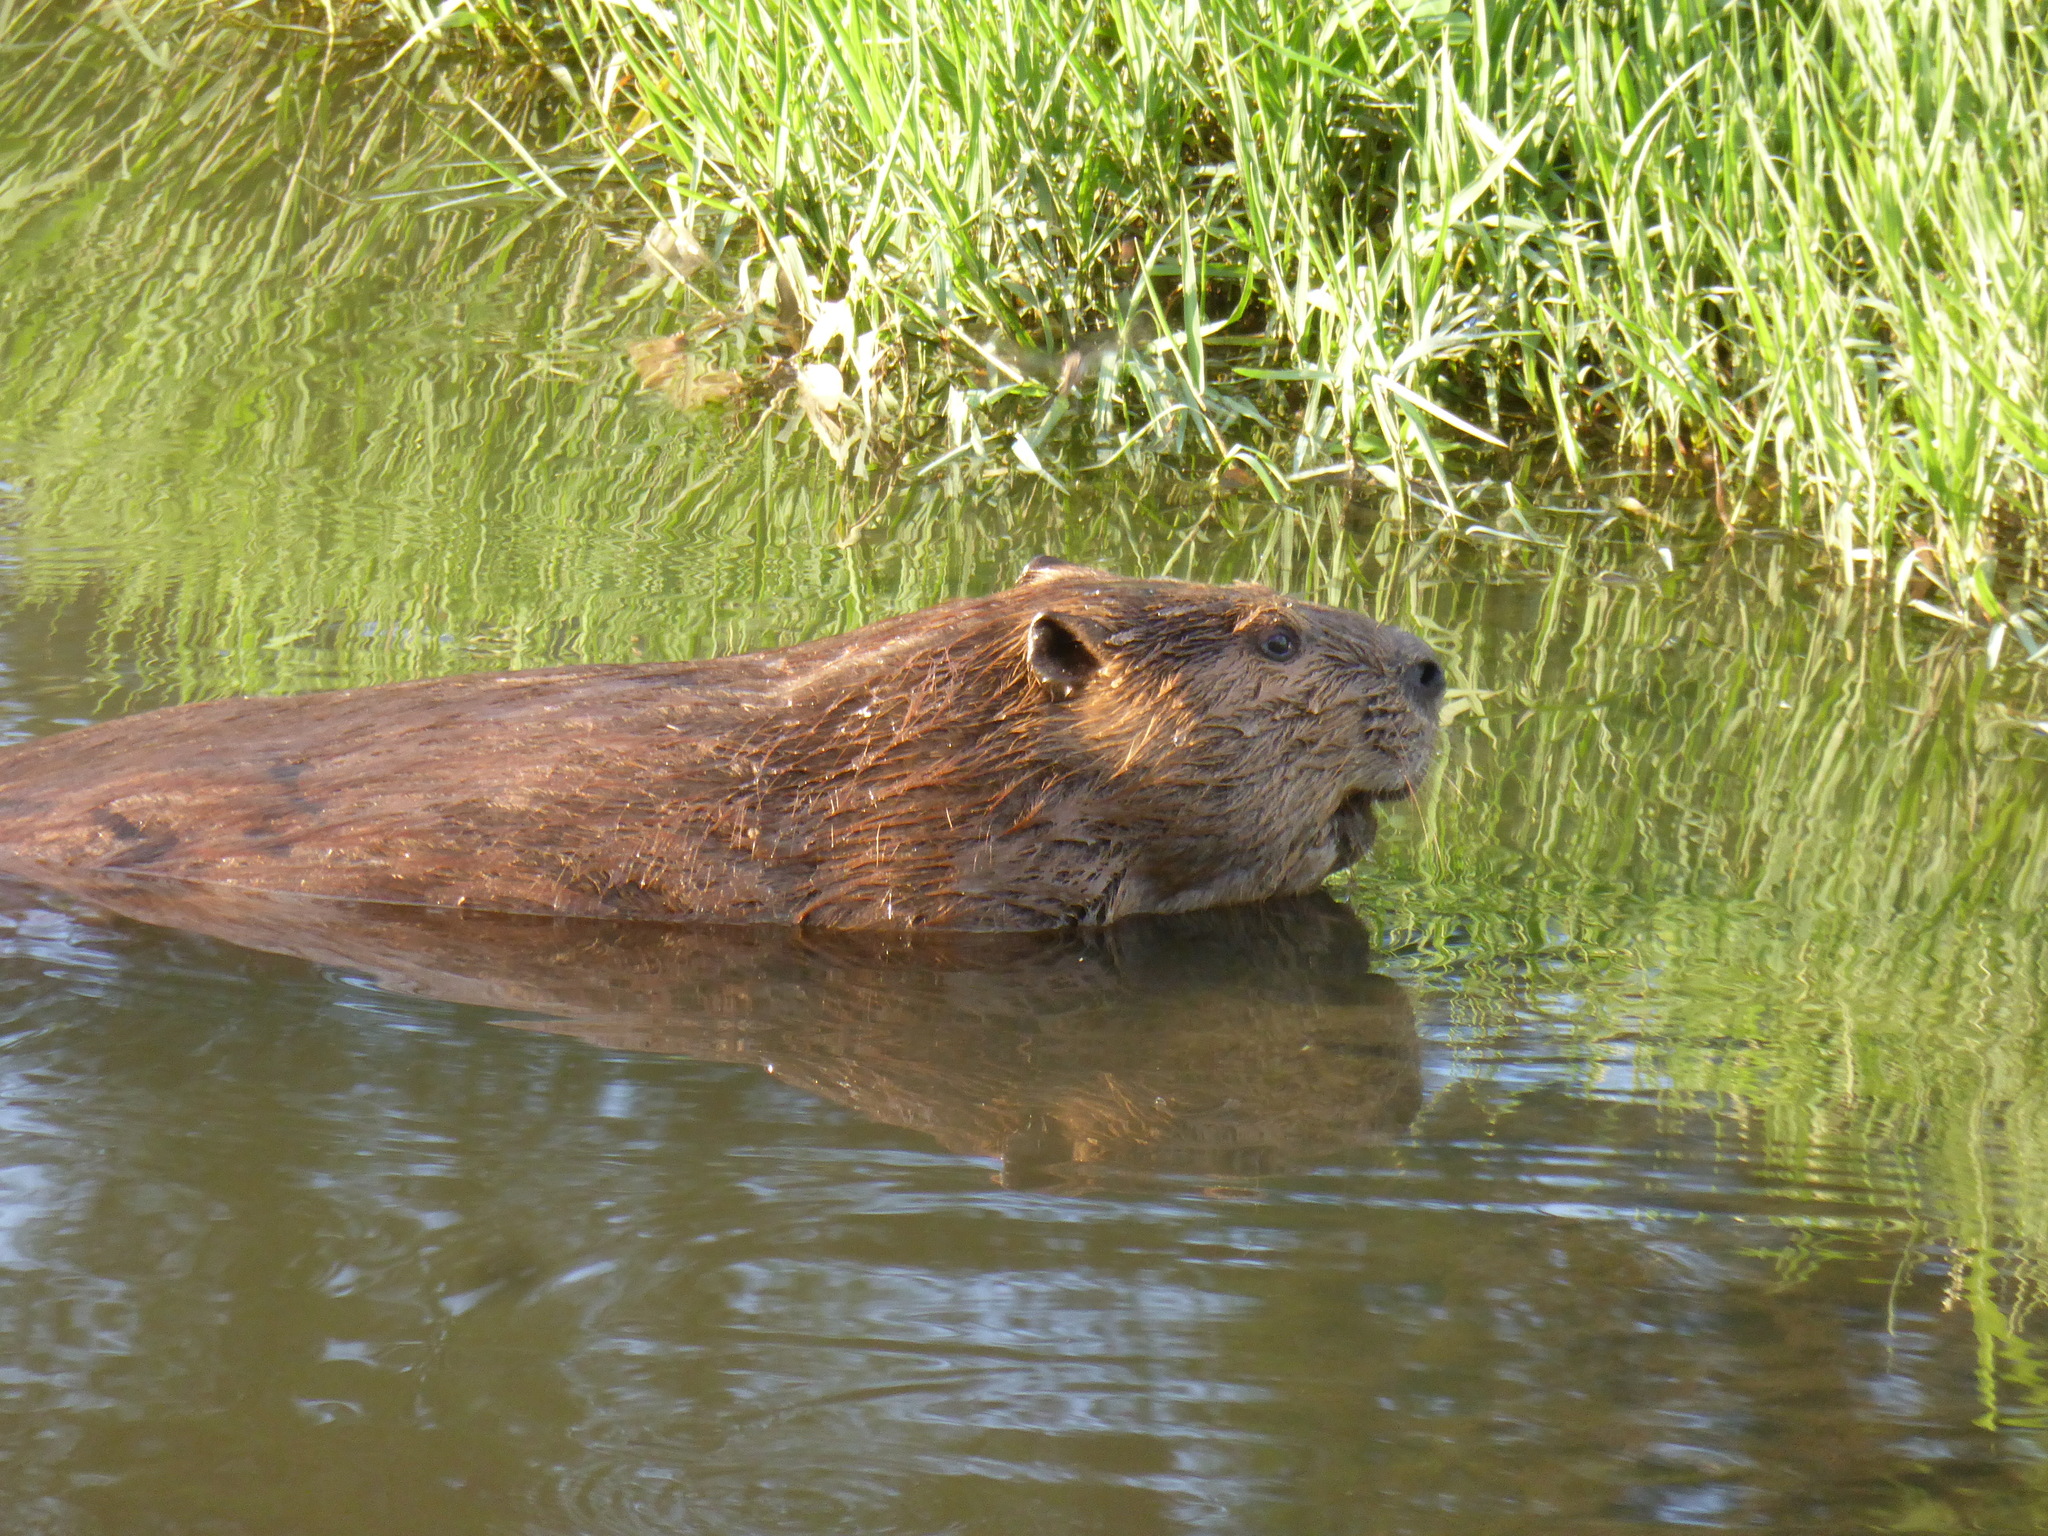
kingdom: Animalia
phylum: Chordata
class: Mammalia
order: Rodentia
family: Castoridae
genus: Castor
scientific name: Castor canadensis
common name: American beaver
